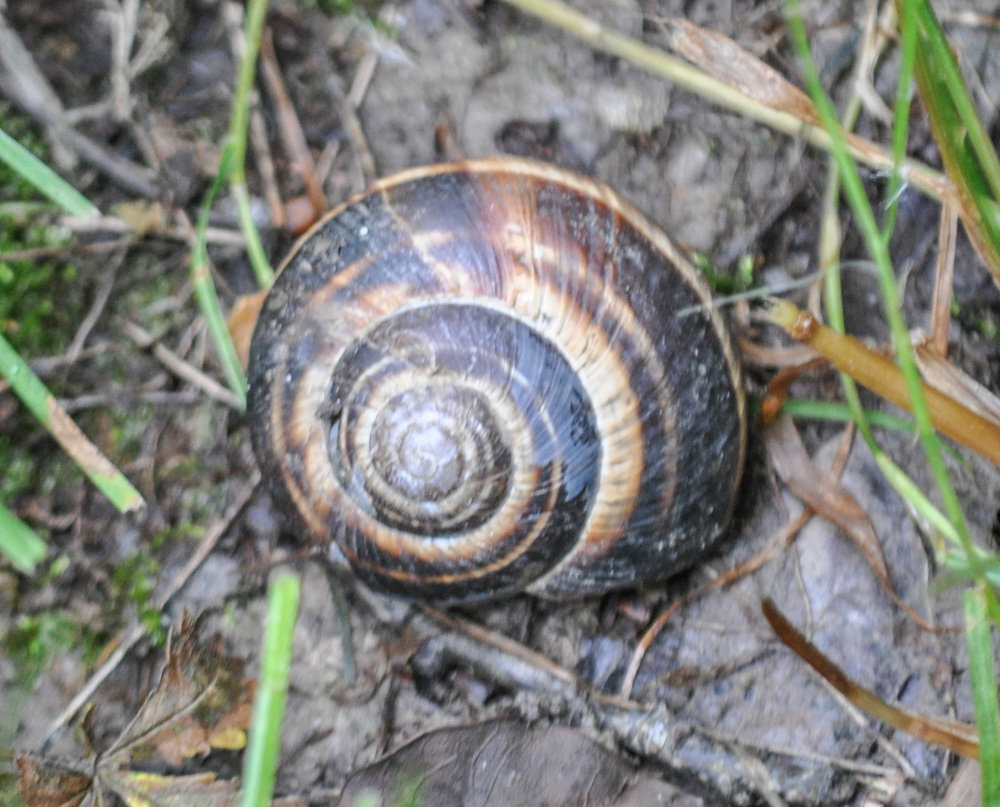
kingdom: Animalia
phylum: Mollusca
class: Gastropoda
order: Stylommatophora
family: Helicidae
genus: Helix
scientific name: Helix lucorum
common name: Turkish snail
